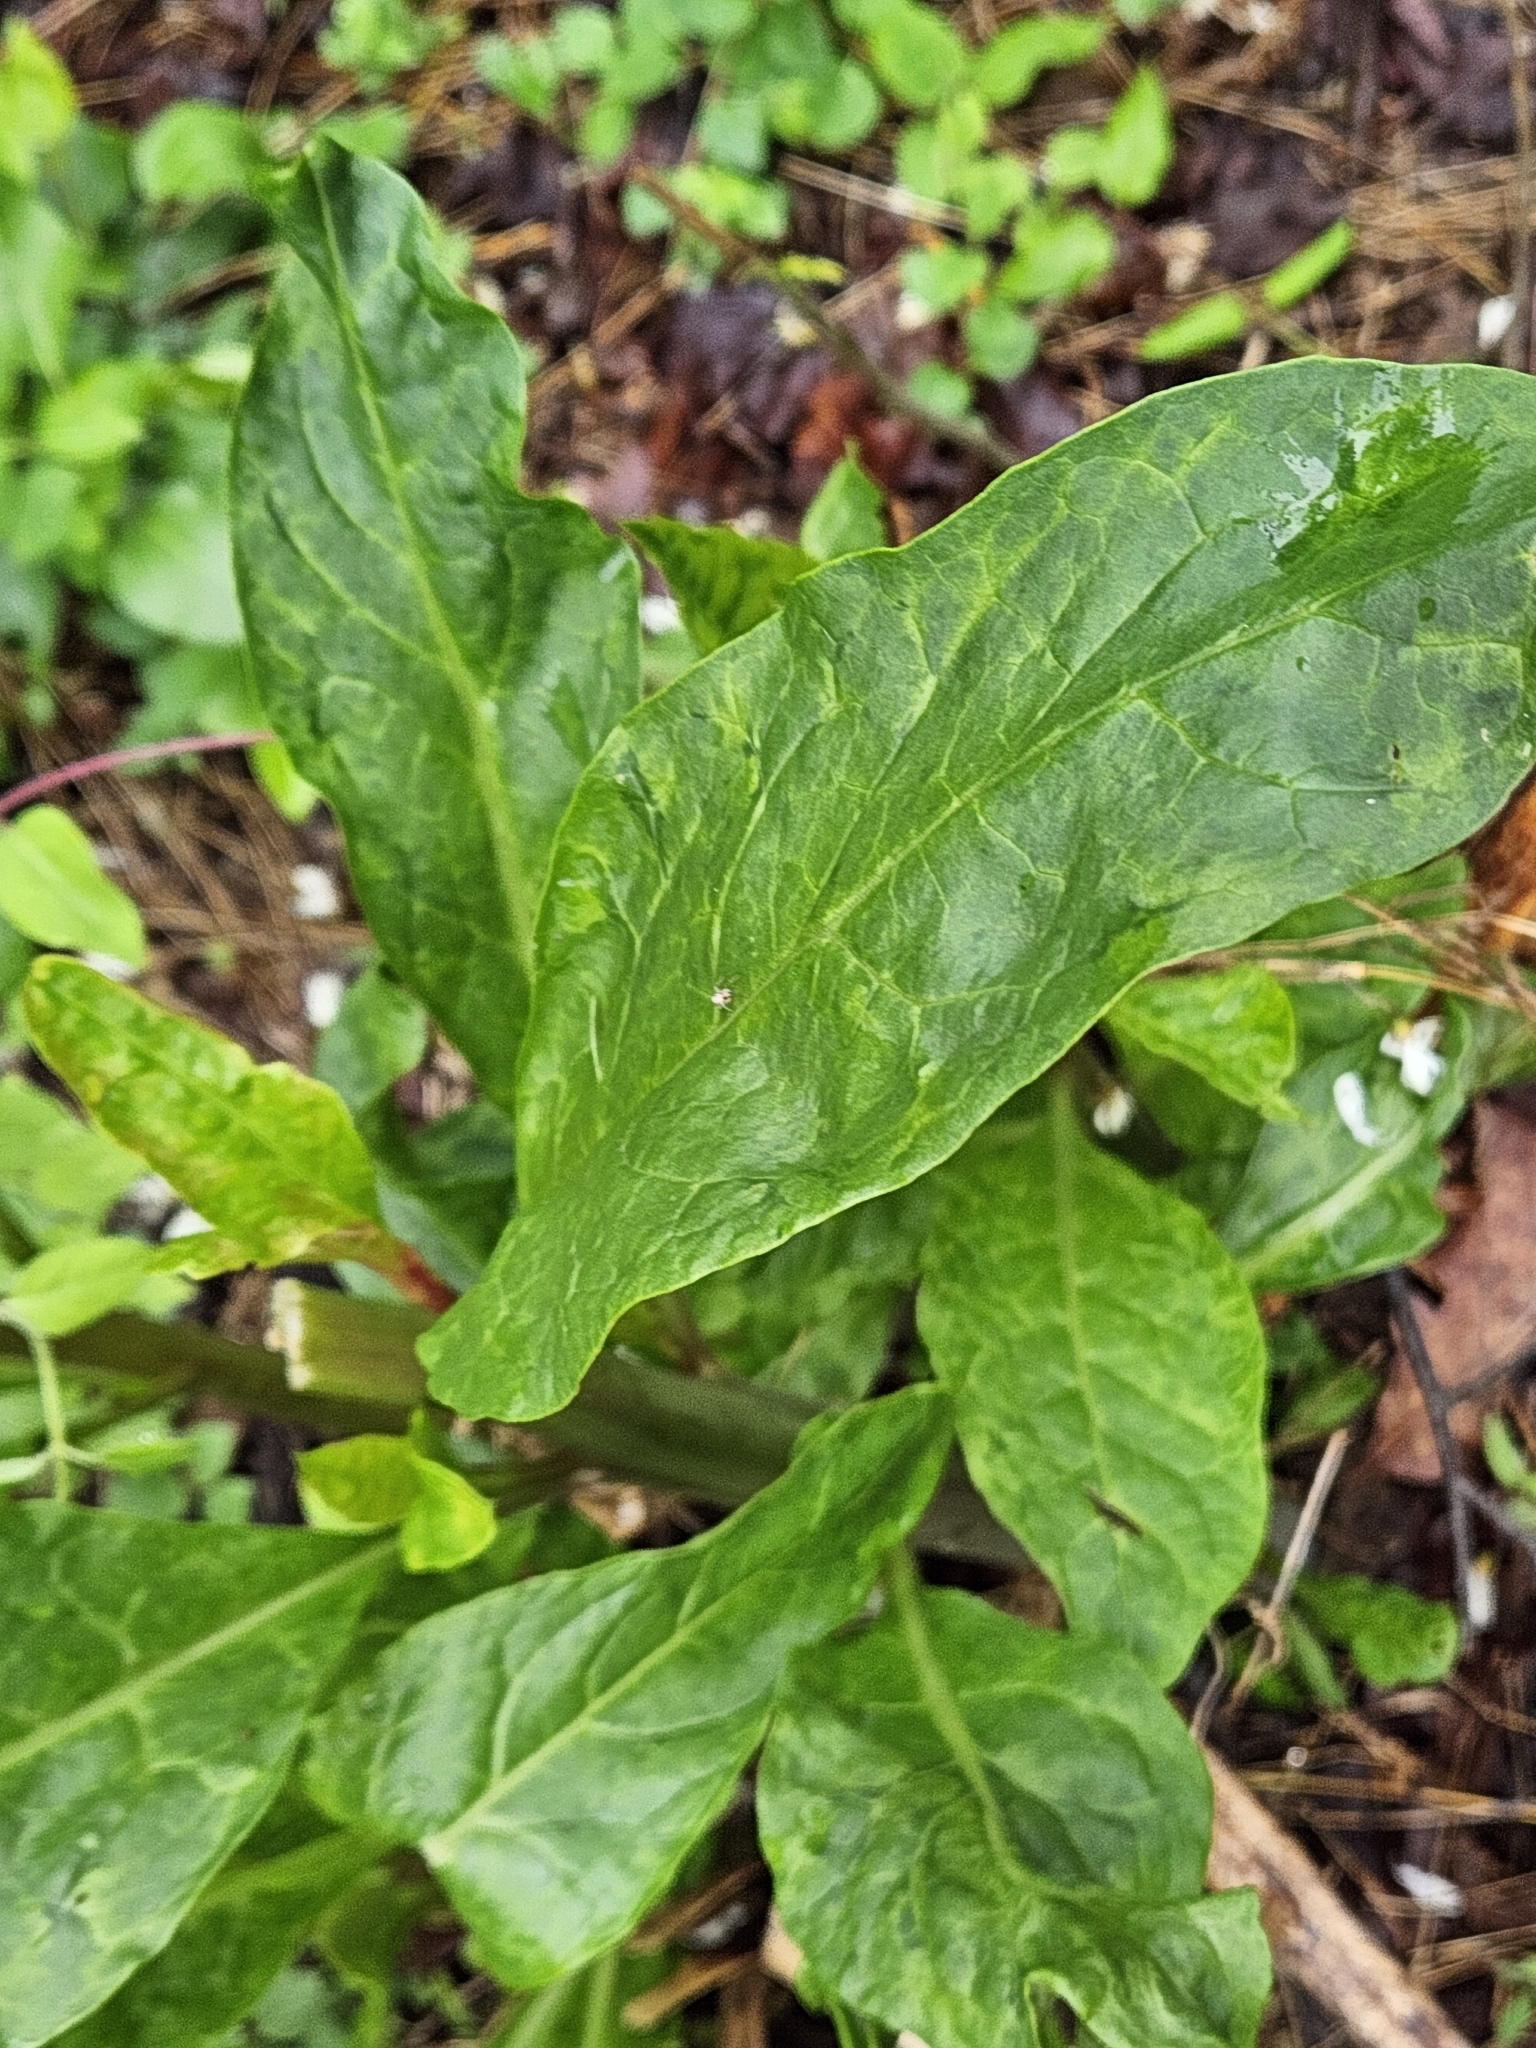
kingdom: Plantae
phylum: Tracheophyta
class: Magnoliopsida
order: Caryophyllales
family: Phytolaccaceae
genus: Phytolacca
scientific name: Phytolacca americana
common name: American pokeweed
